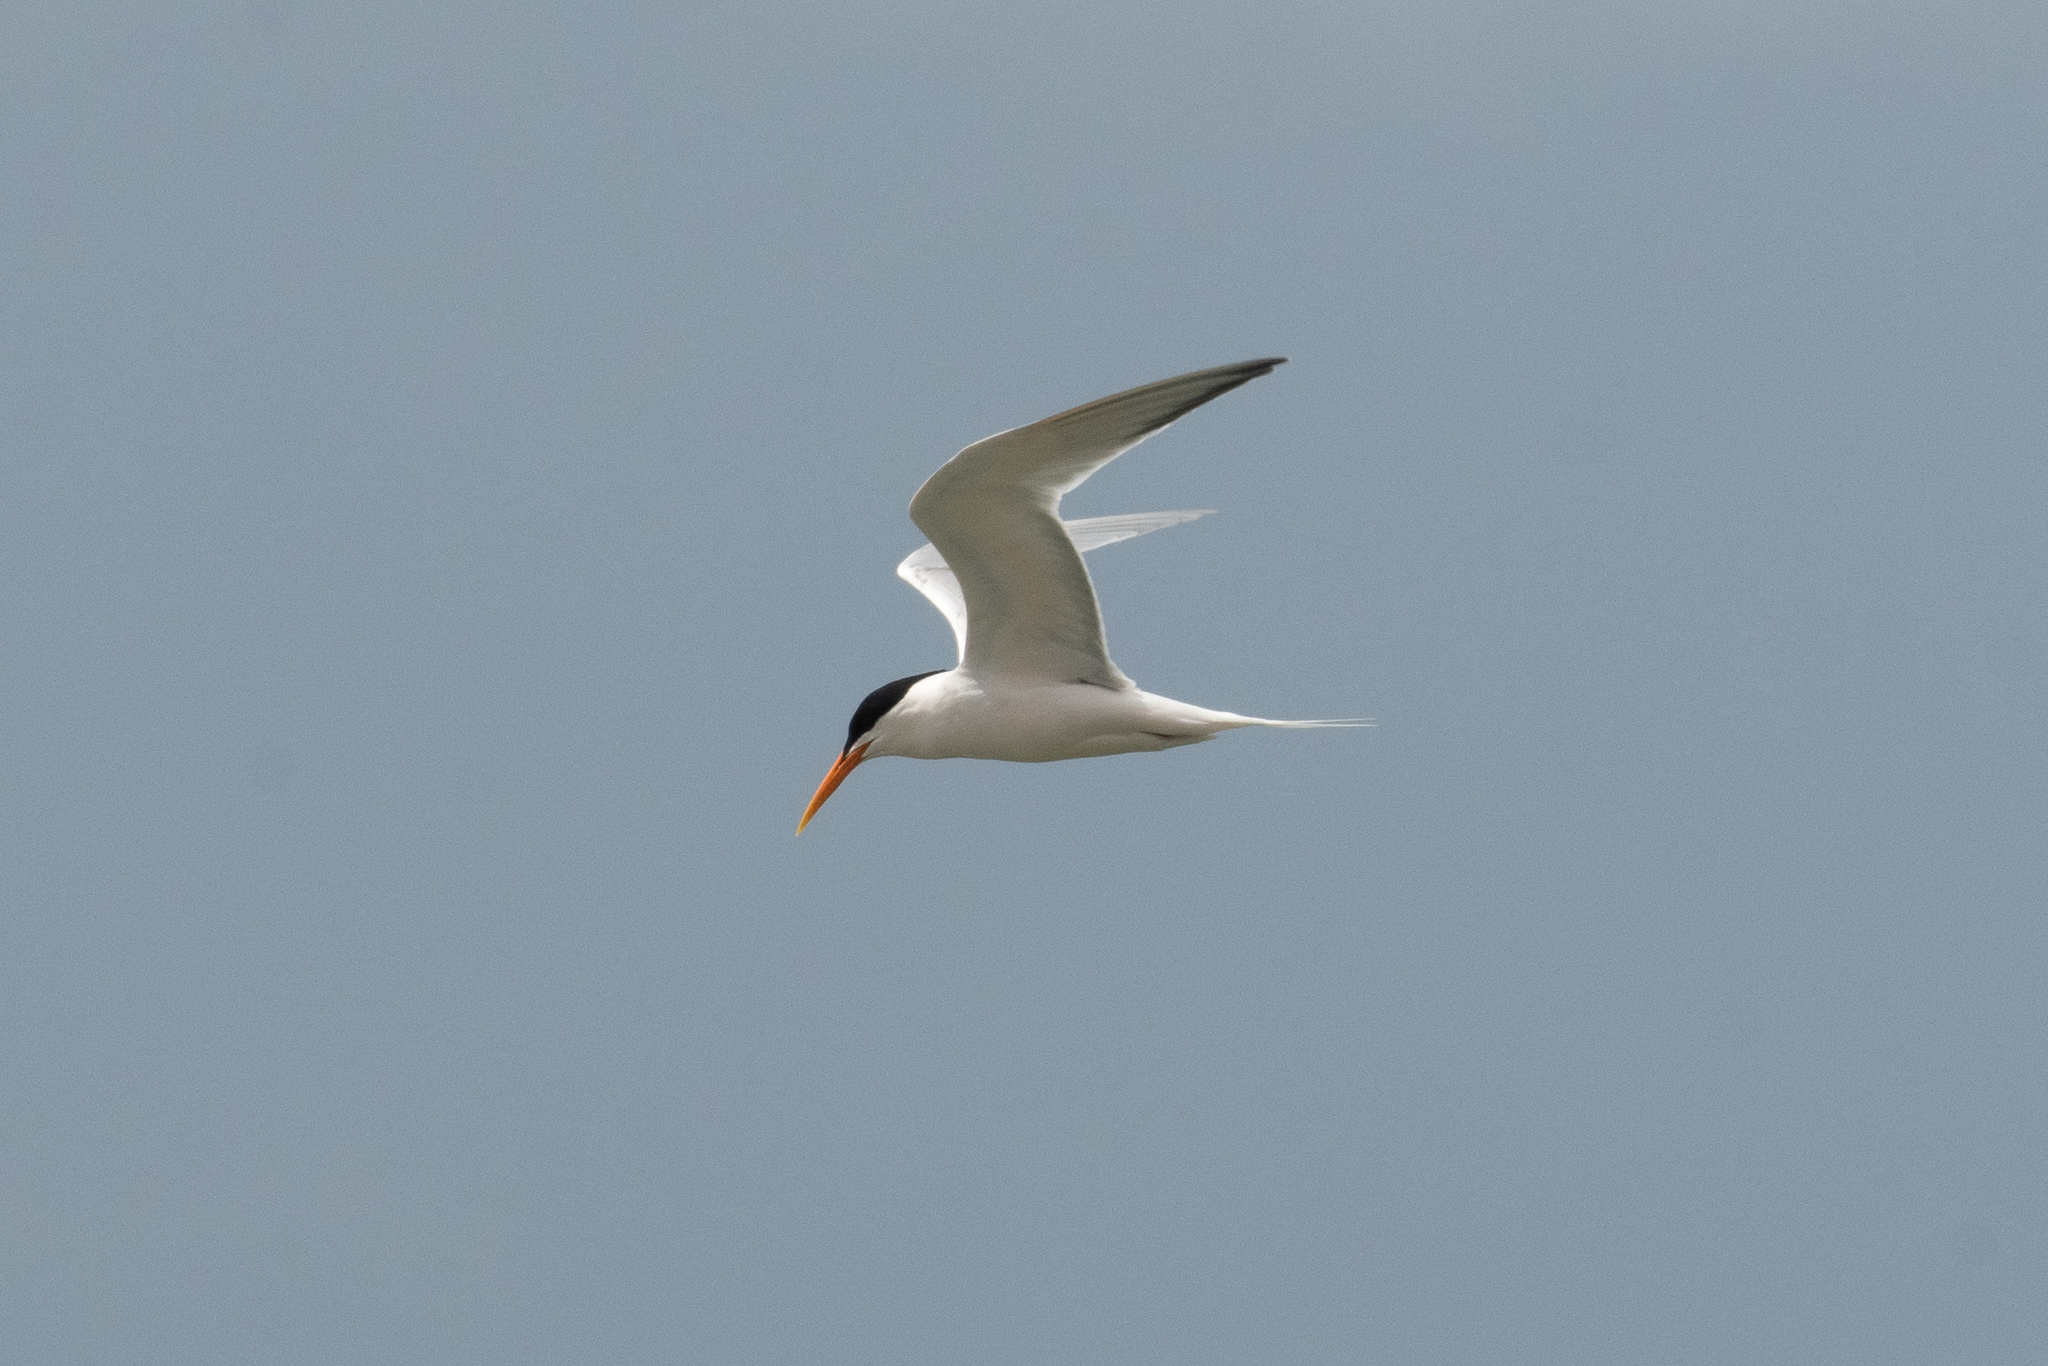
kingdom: Animalia
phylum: Chordata
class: Aves
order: Charadriiformes
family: Laridae
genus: Thalasseus
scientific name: Thalasseus elegans
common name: Elegant tern
